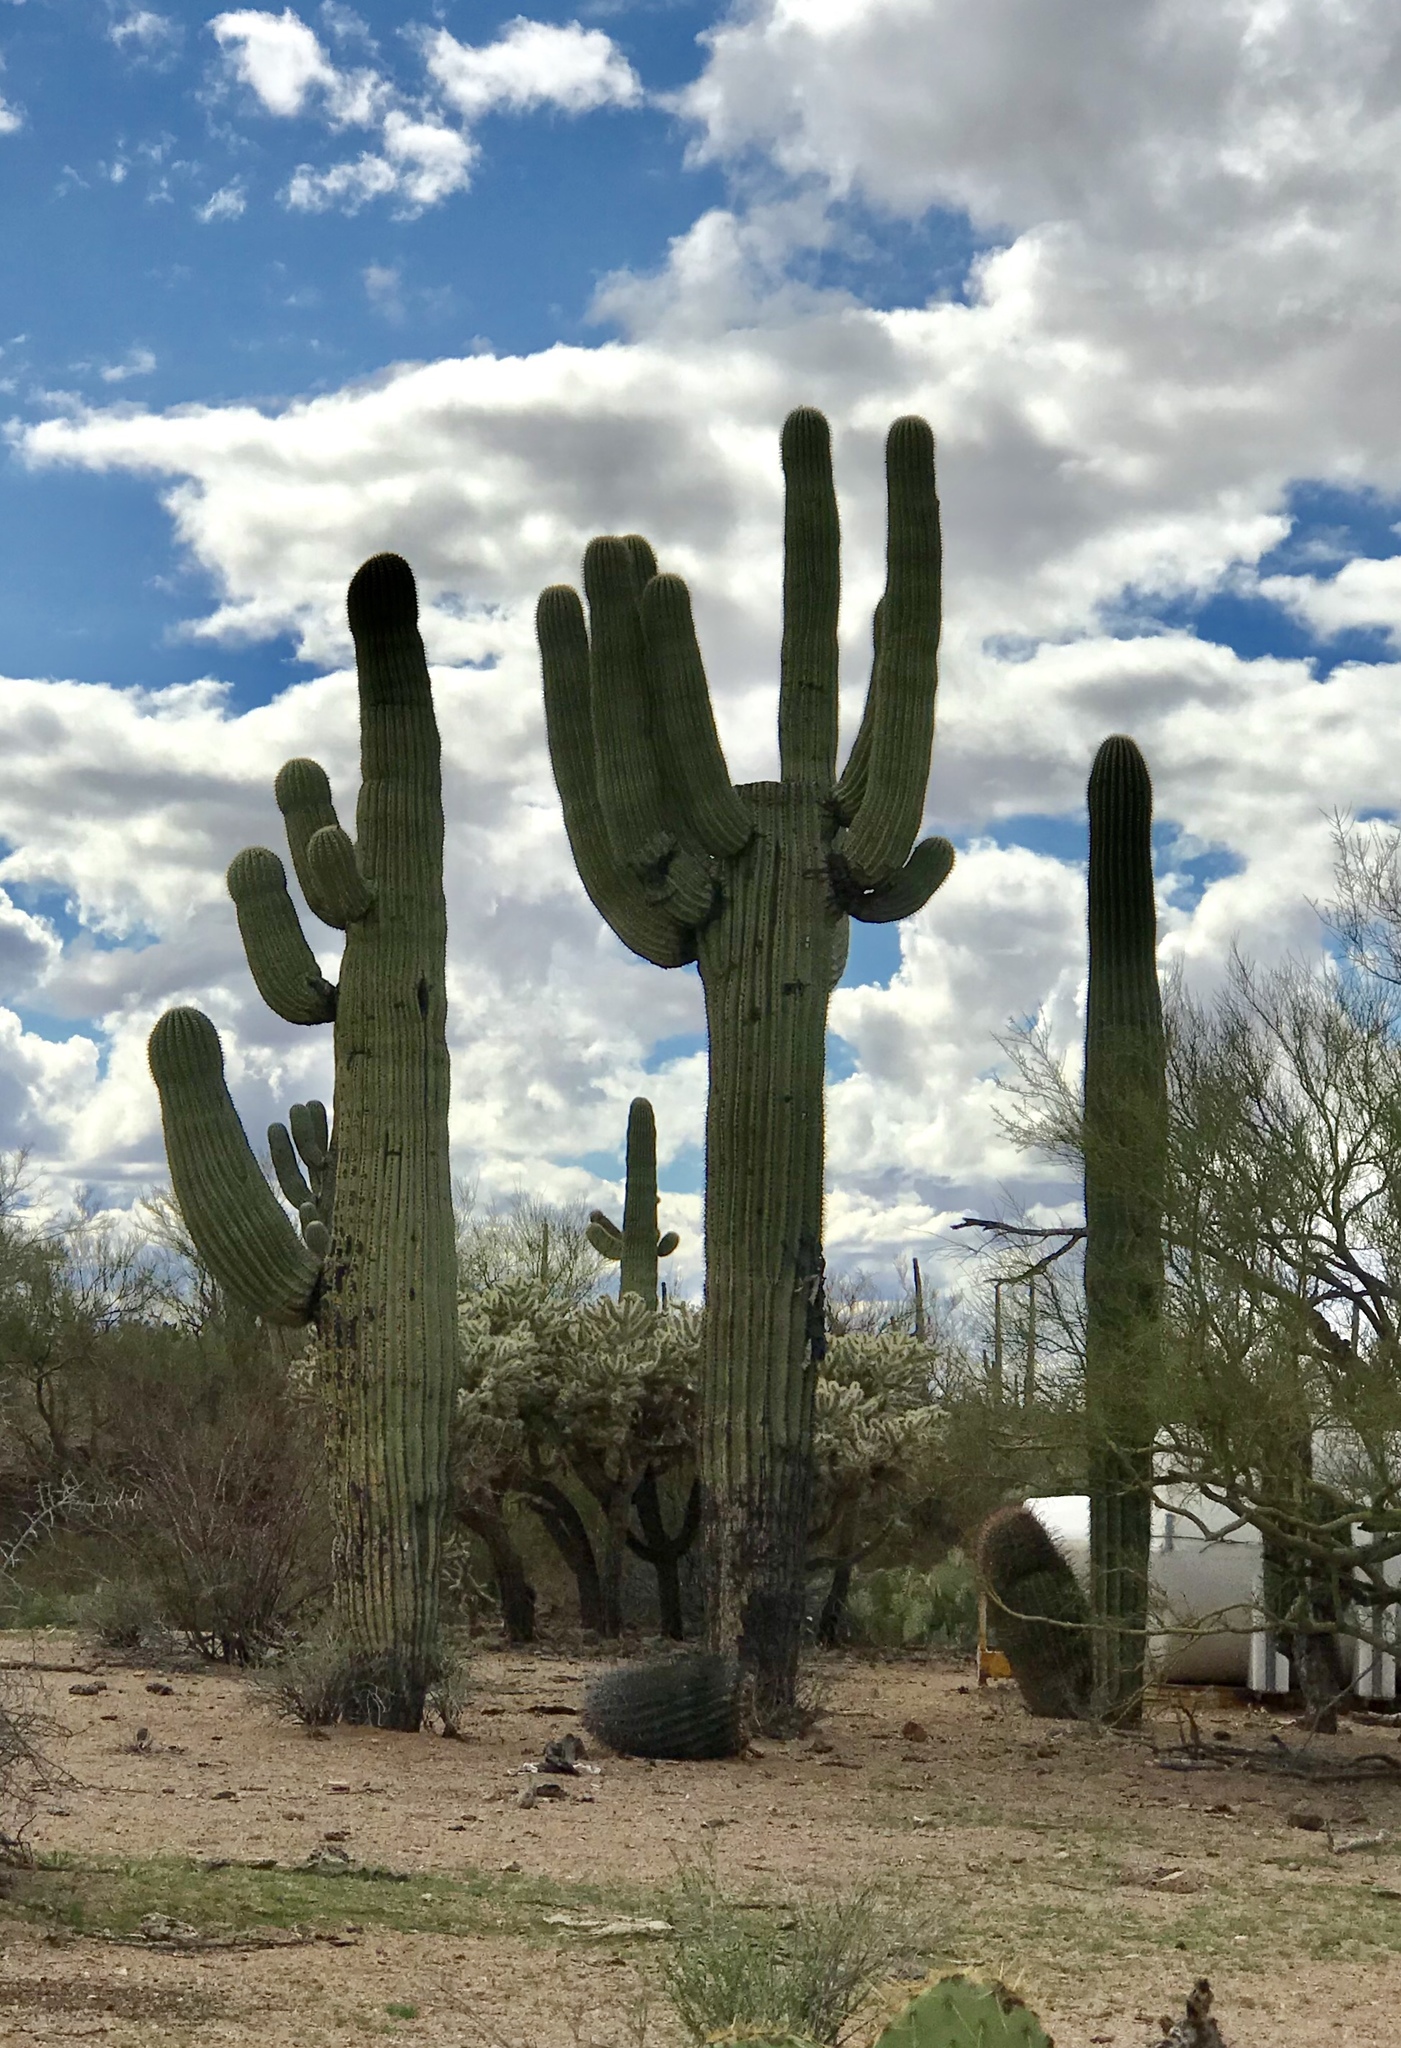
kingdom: Plantae
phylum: Tracheophyta
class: Magnoliopsida
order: Caryophyllales
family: Cactaceae
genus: Carnegiea
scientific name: Carnegiea gigantea
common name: Saguaro
